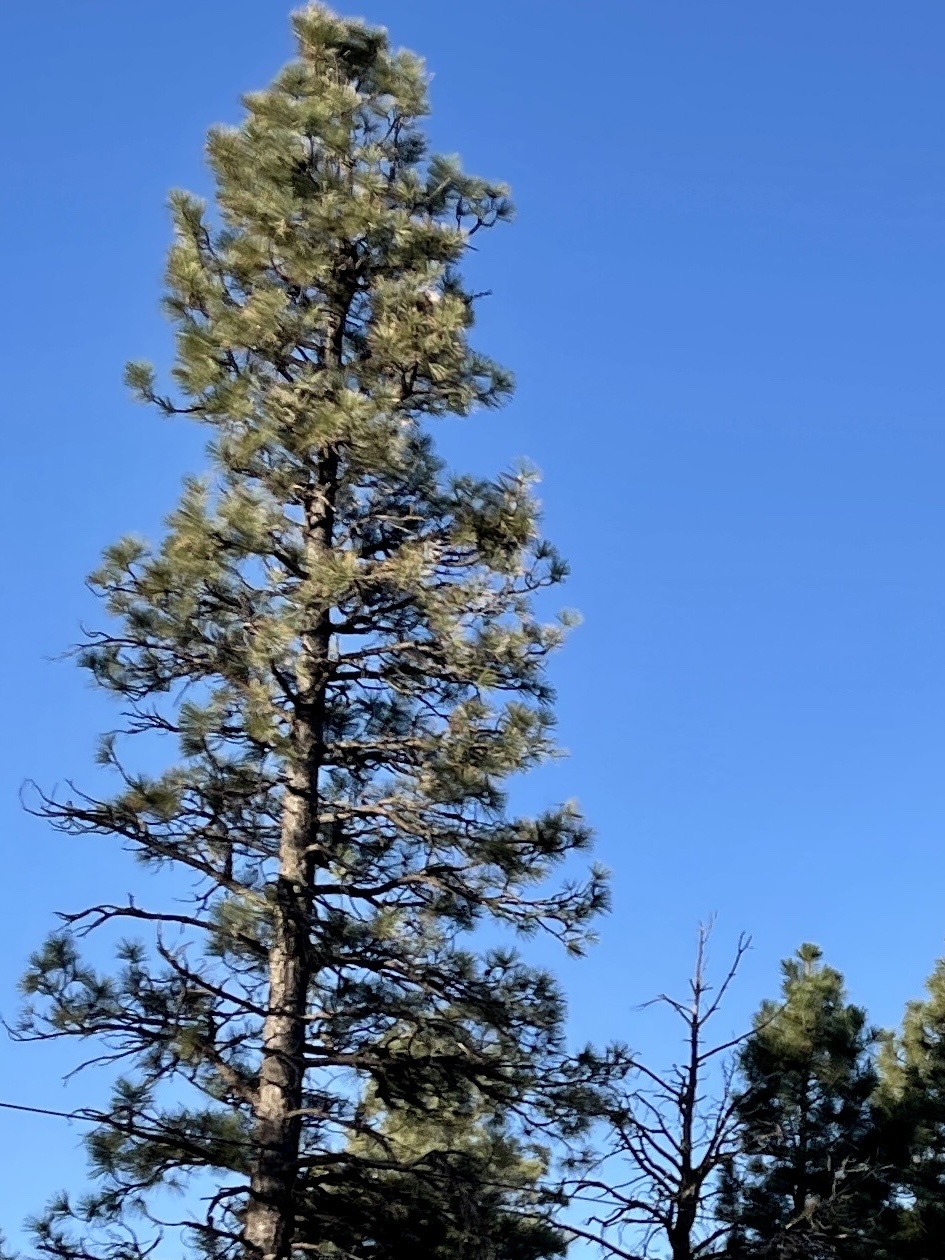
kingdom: Plantae
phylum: Tracheophyta
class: Pinopsida
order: Pinales
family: Pinaceae
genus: Pinus
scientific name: Pinus ponderosa
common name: Western yellow-pine
